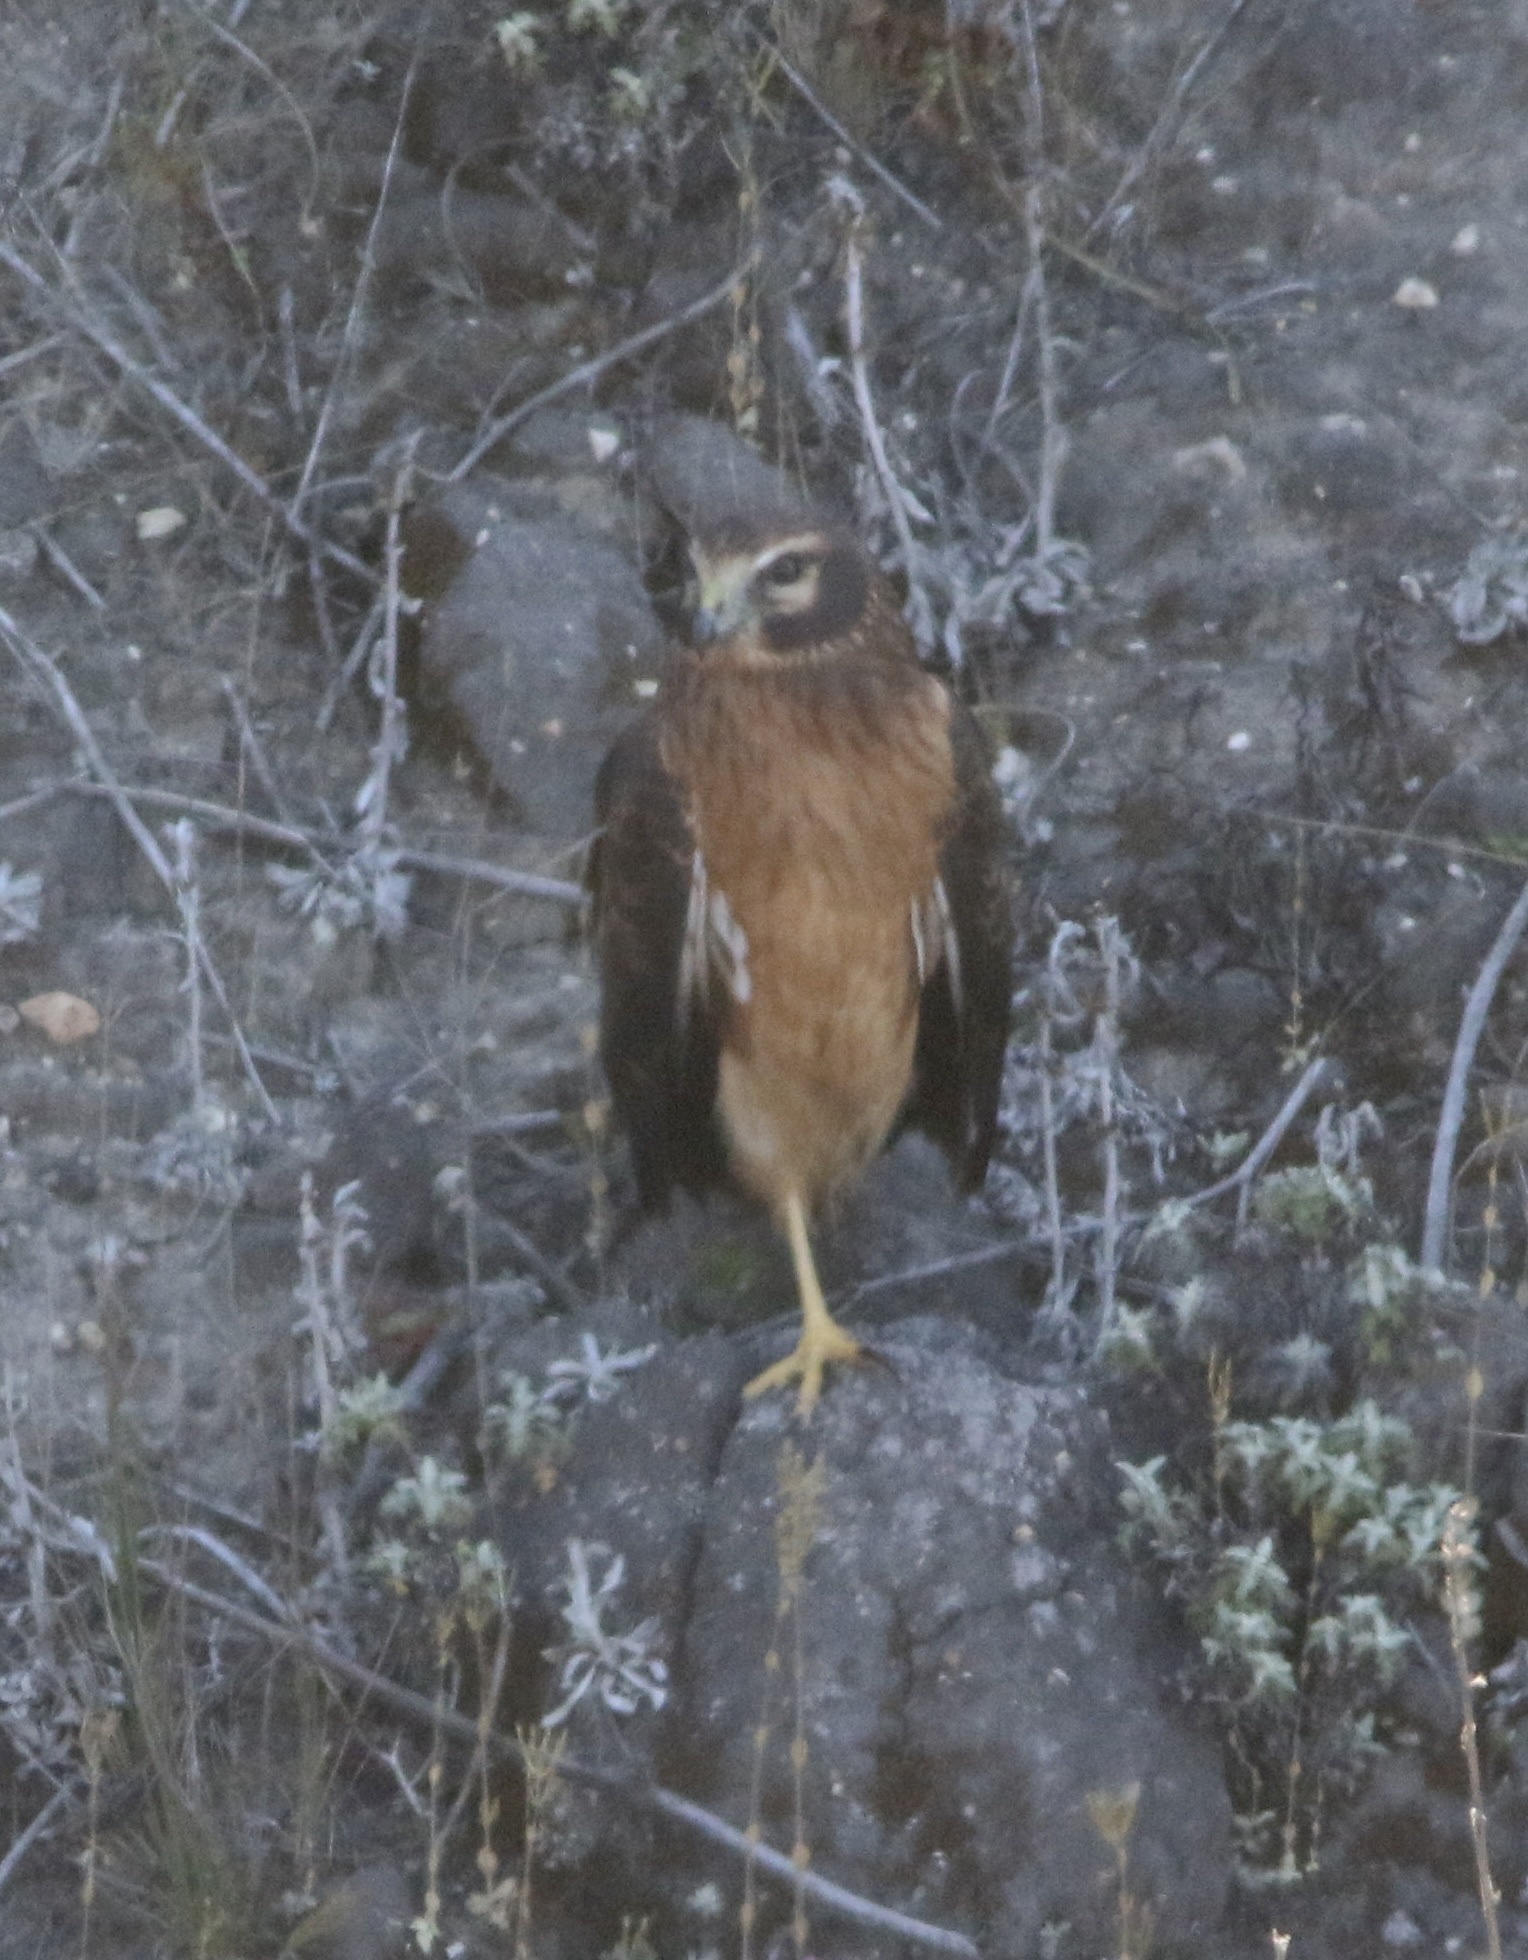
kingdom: Animalia
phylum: Chordata
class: Aves
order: Accipitriformes
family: Accipitridae
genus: Circus
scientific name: Circus cyaneus
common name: Hen harrier
